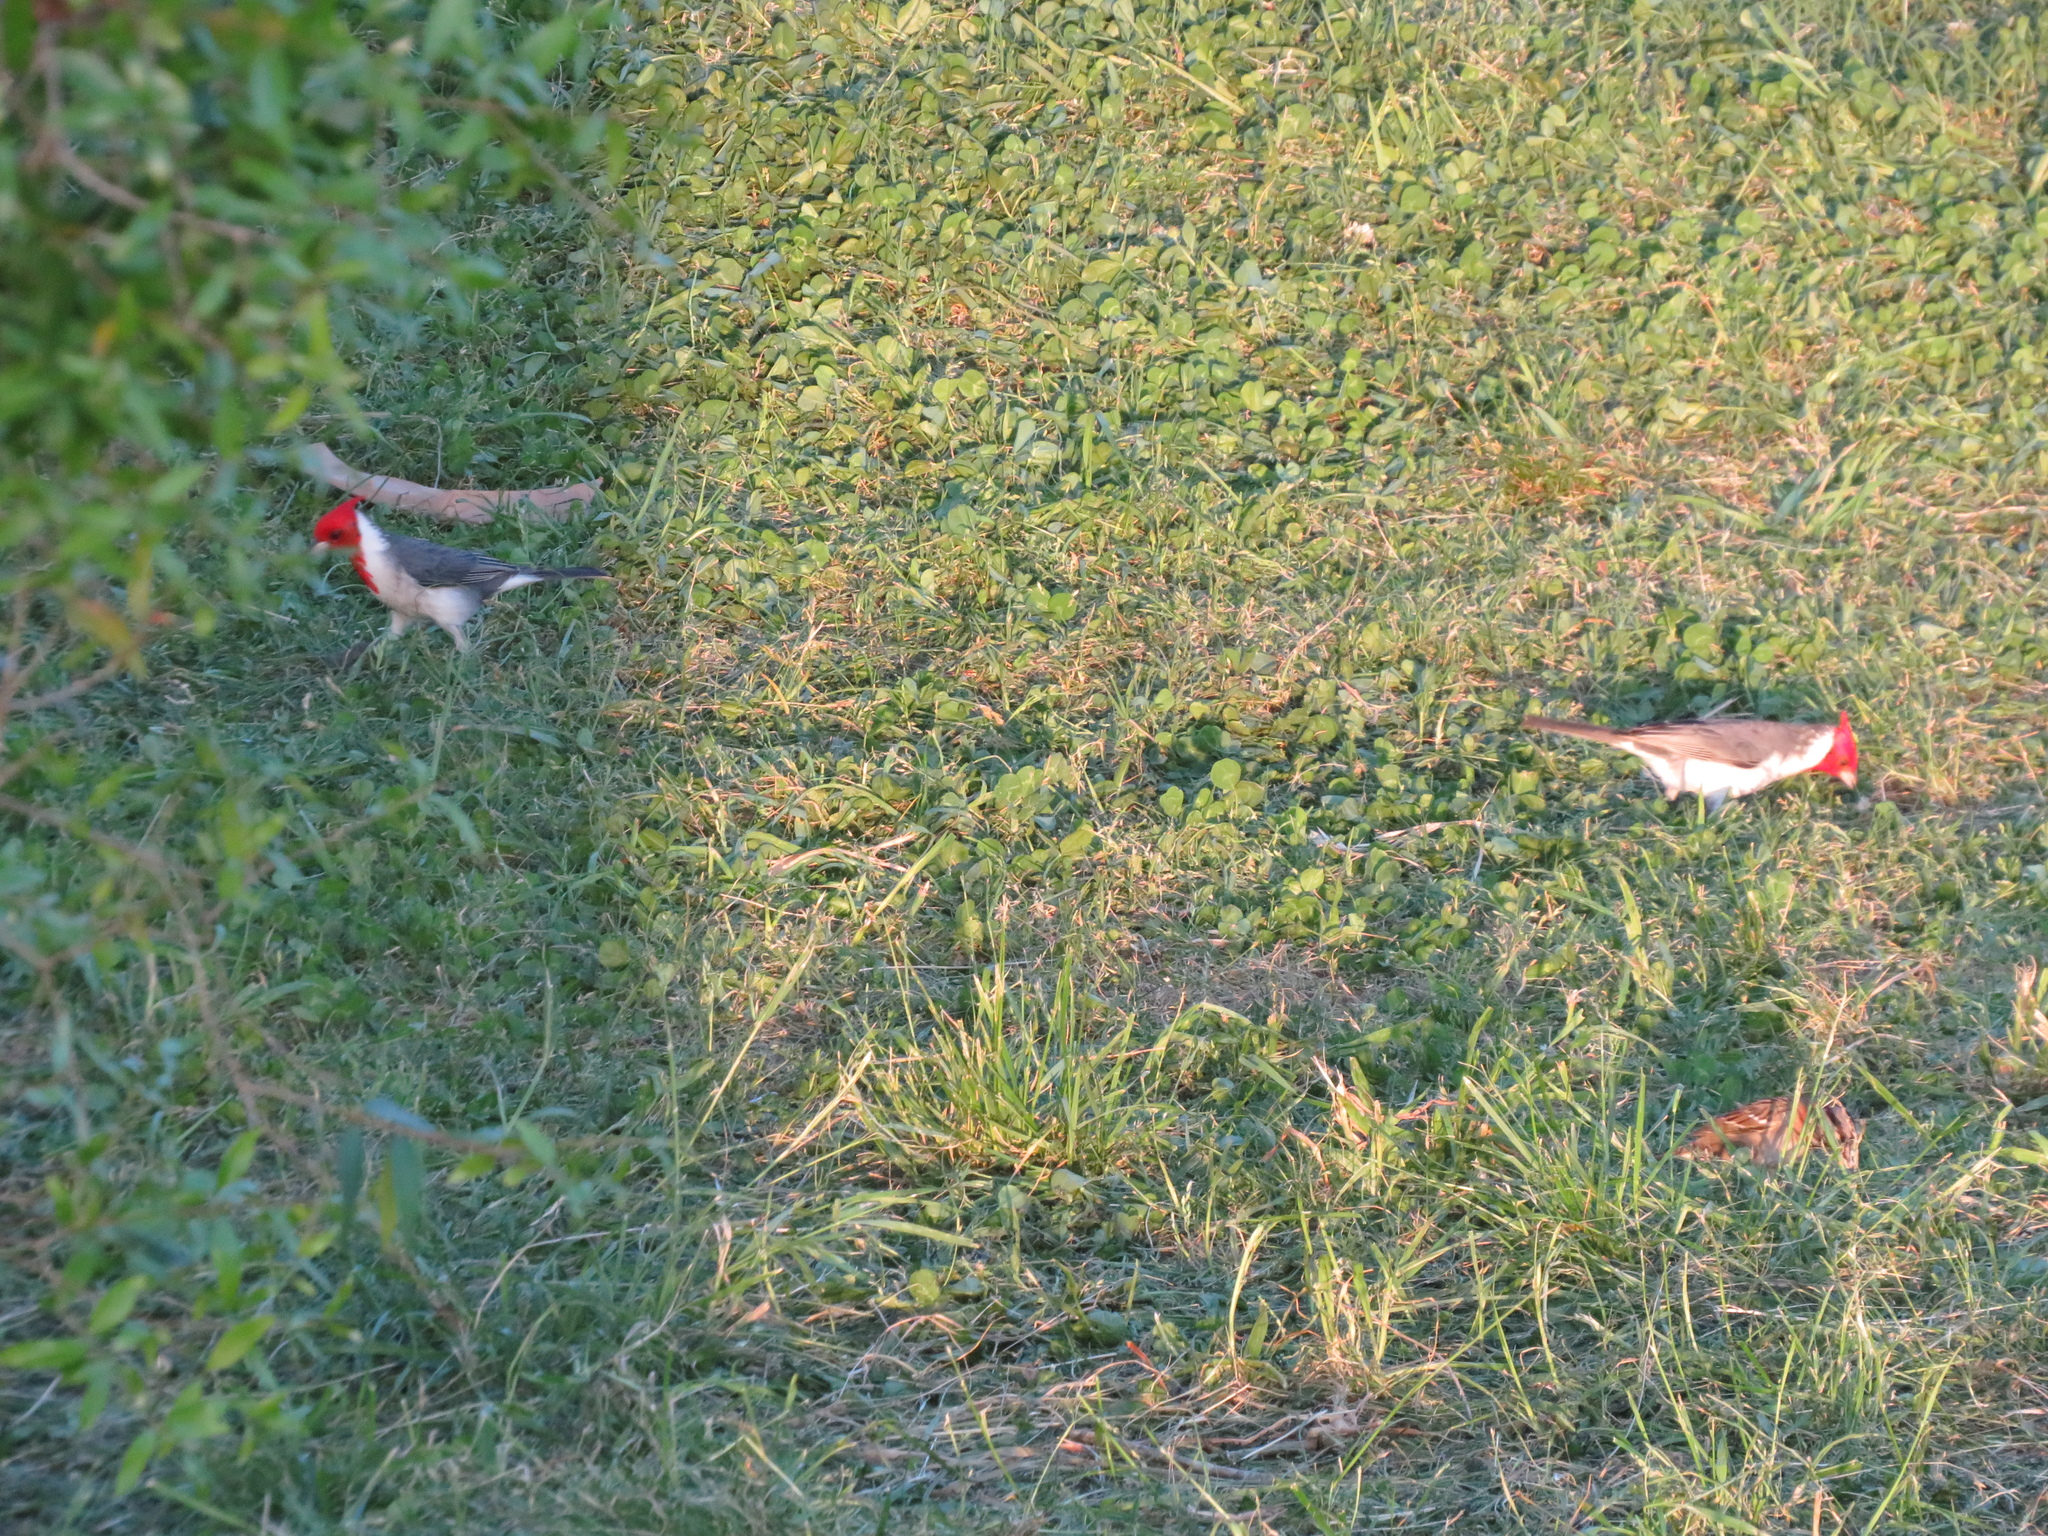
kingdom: Animalia
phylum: Chordata
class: Aves
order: Passeriformes
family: Thraupidae
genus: Paroaria
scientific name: Paroaria coronata
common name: Red-crested cardinal
